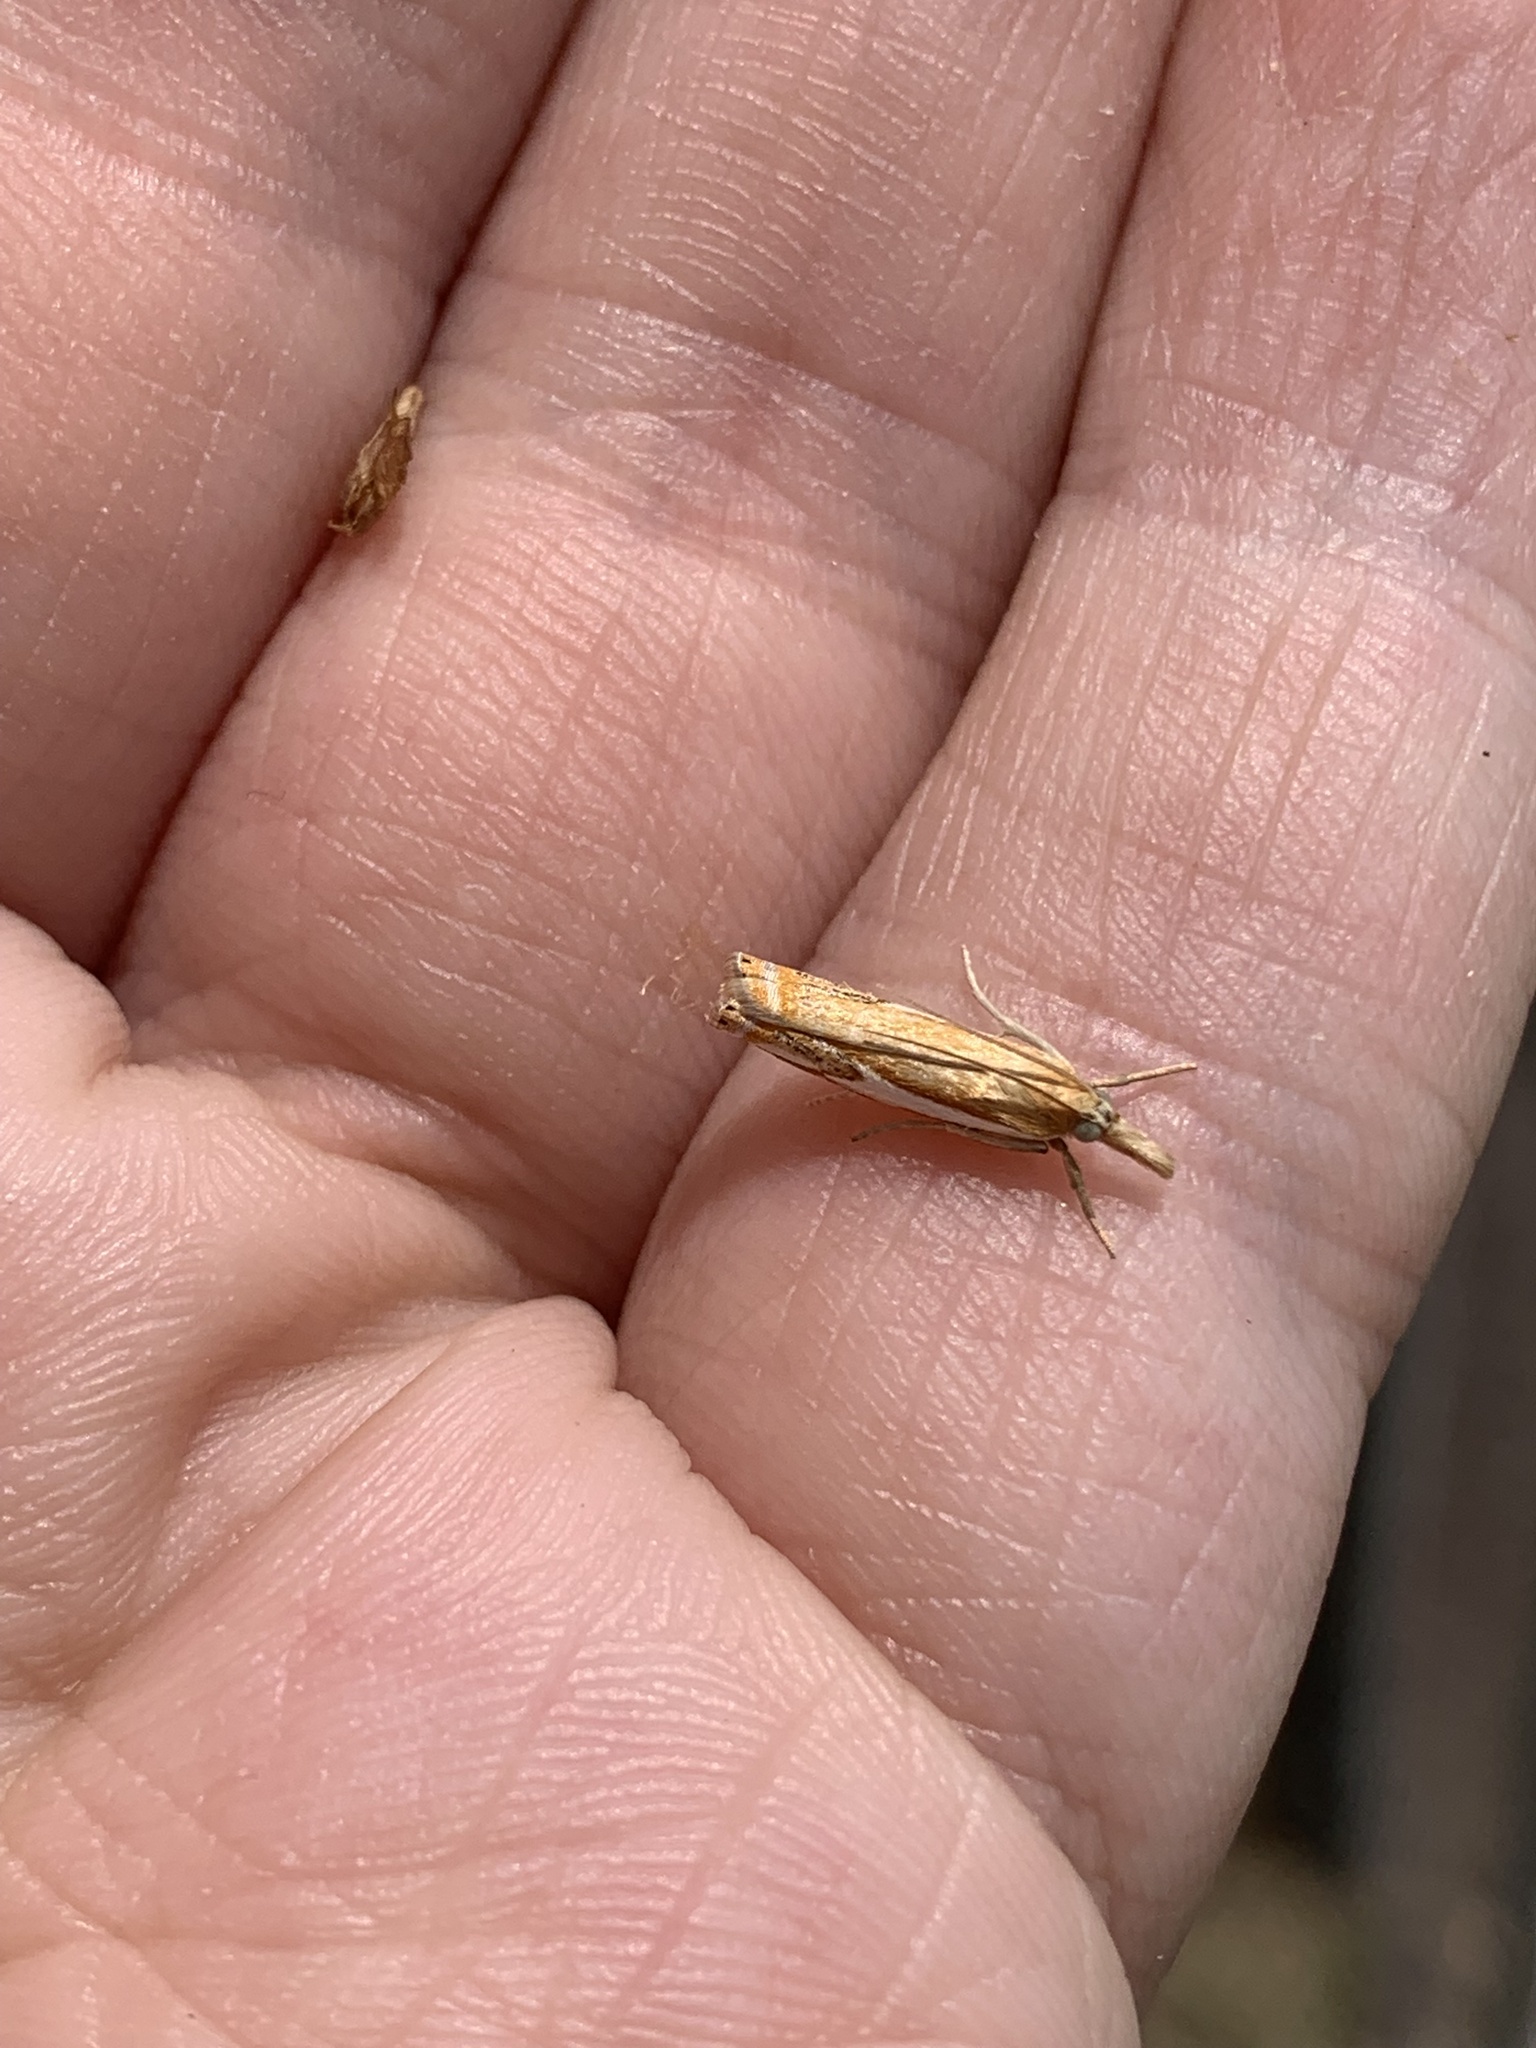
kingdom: Animalia
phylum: Arthropoda
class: Insecta
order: Lepidoptera
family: Crambidae
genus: Crambus
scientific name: Crambus agitatellus
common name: Double-banded grass-veneer
